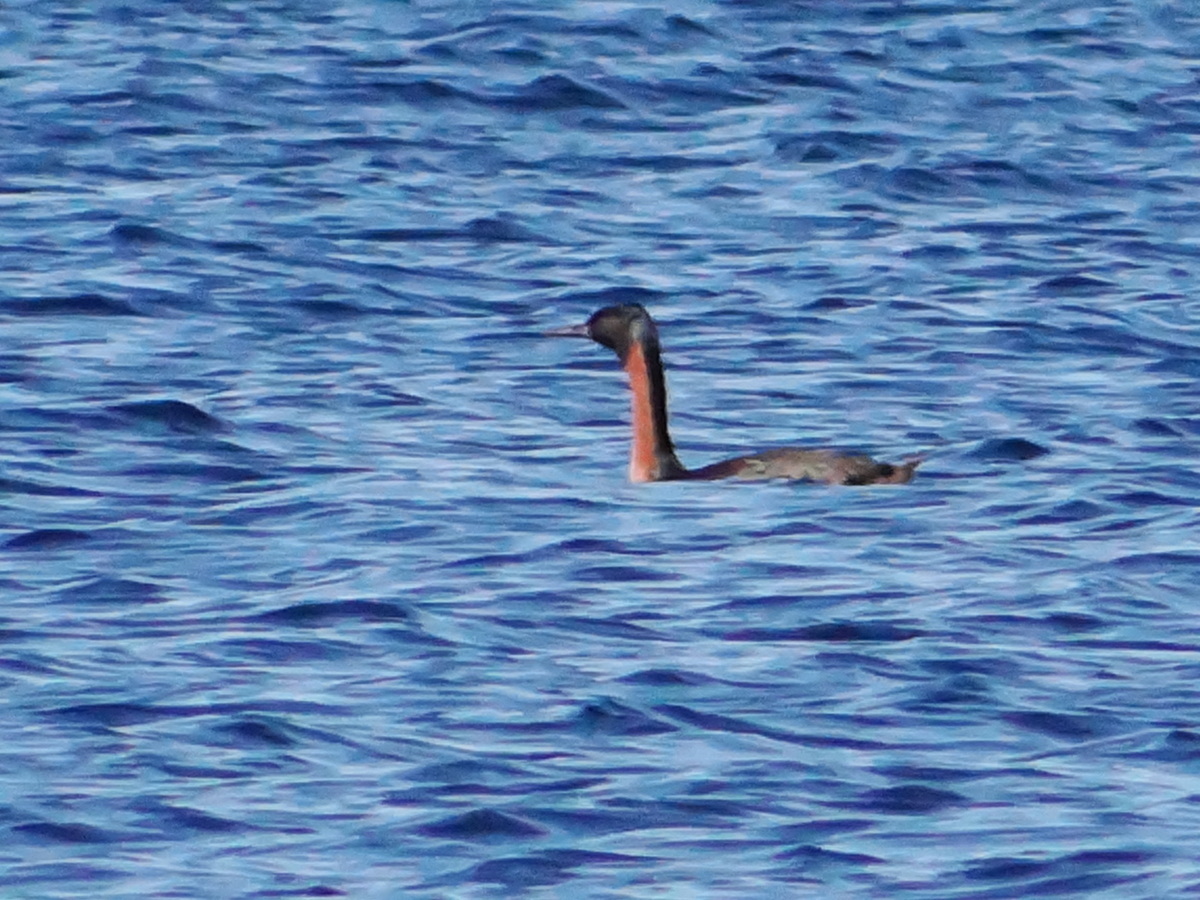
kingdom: Animalia
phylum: Chordata
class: Aves
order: Podicipediformes
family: Podicipedidae
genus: Podiceps
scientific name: Podiceps major
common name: Great grebe
